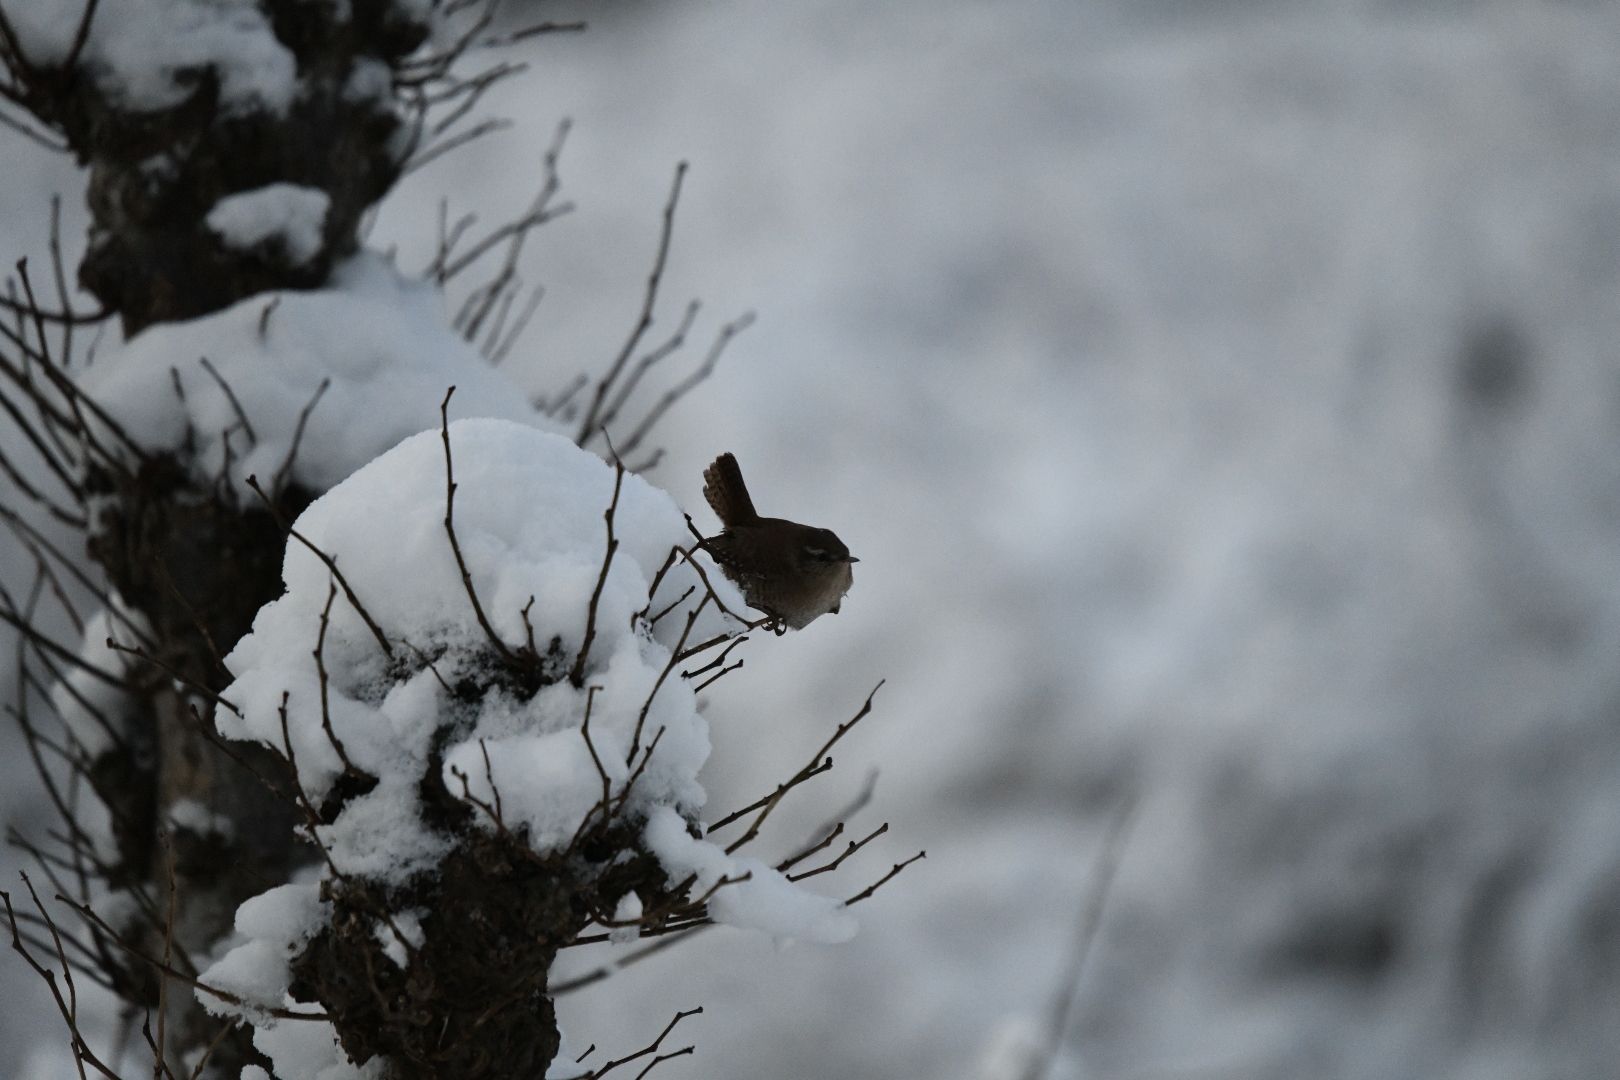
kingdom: Animalia
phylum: Chordata
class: Aves
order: Passeriformes
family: Troglodytidae
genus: Troglodytes
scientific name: Troglodytes troglodytes
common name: Eurasian wren
